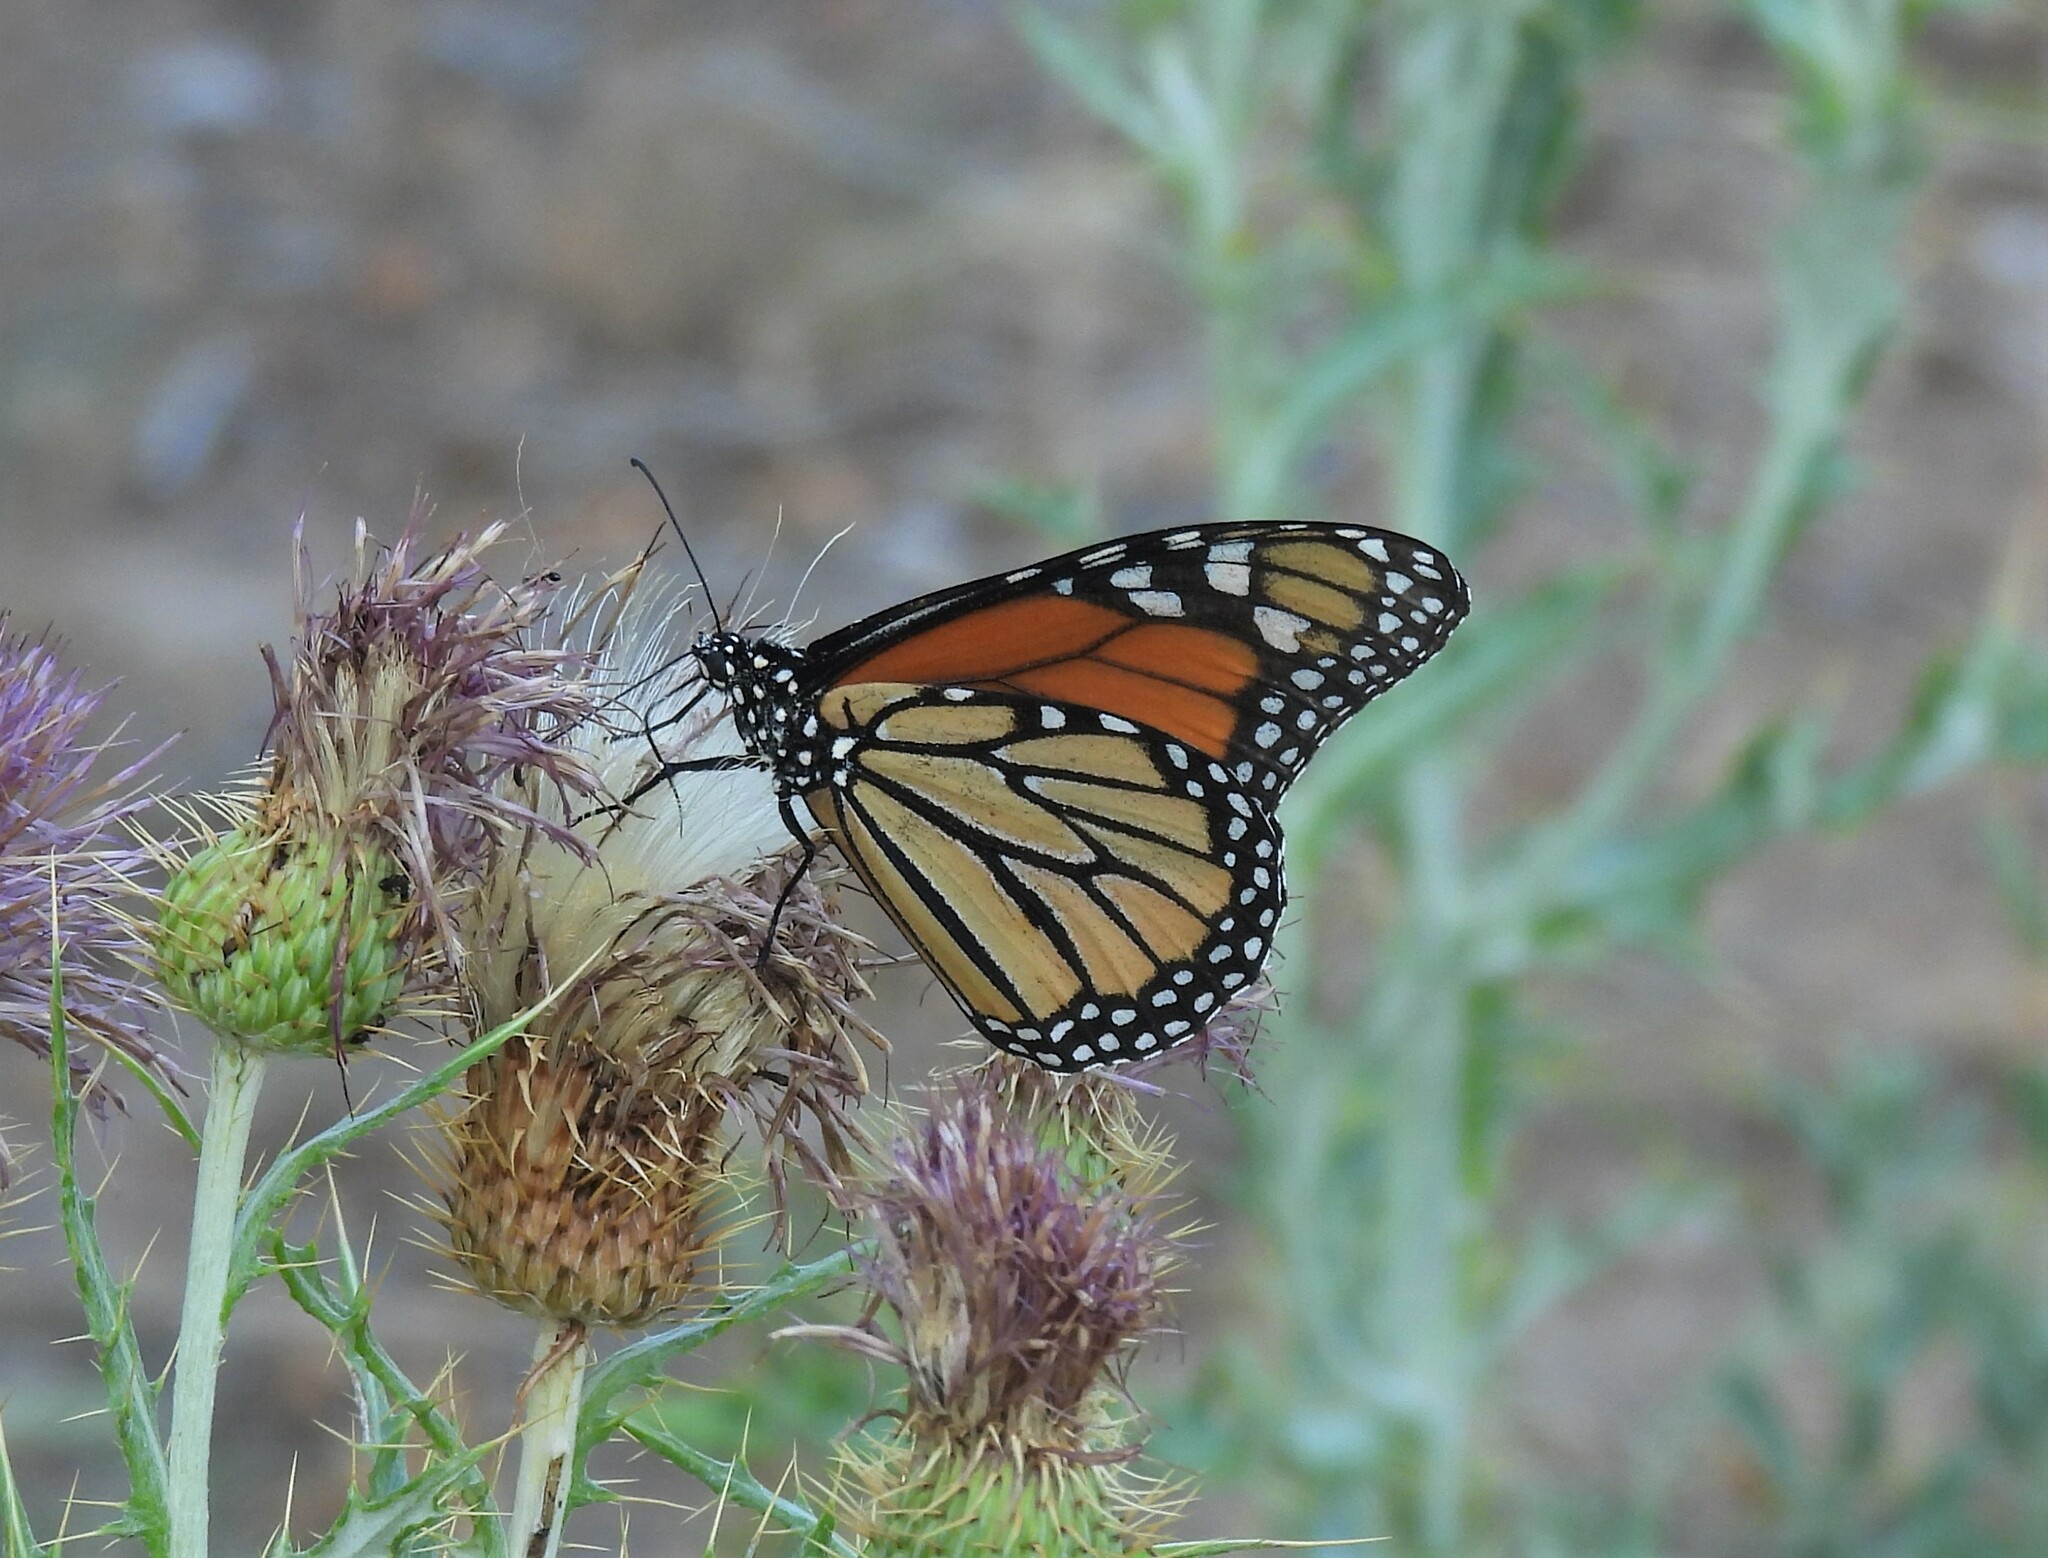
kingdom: Animalia
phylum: Arthropoda
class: Insecta
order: Lepidoptera
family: Nymphalidae
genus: Danaus
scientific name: Danaus plexippus
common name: Monarch
